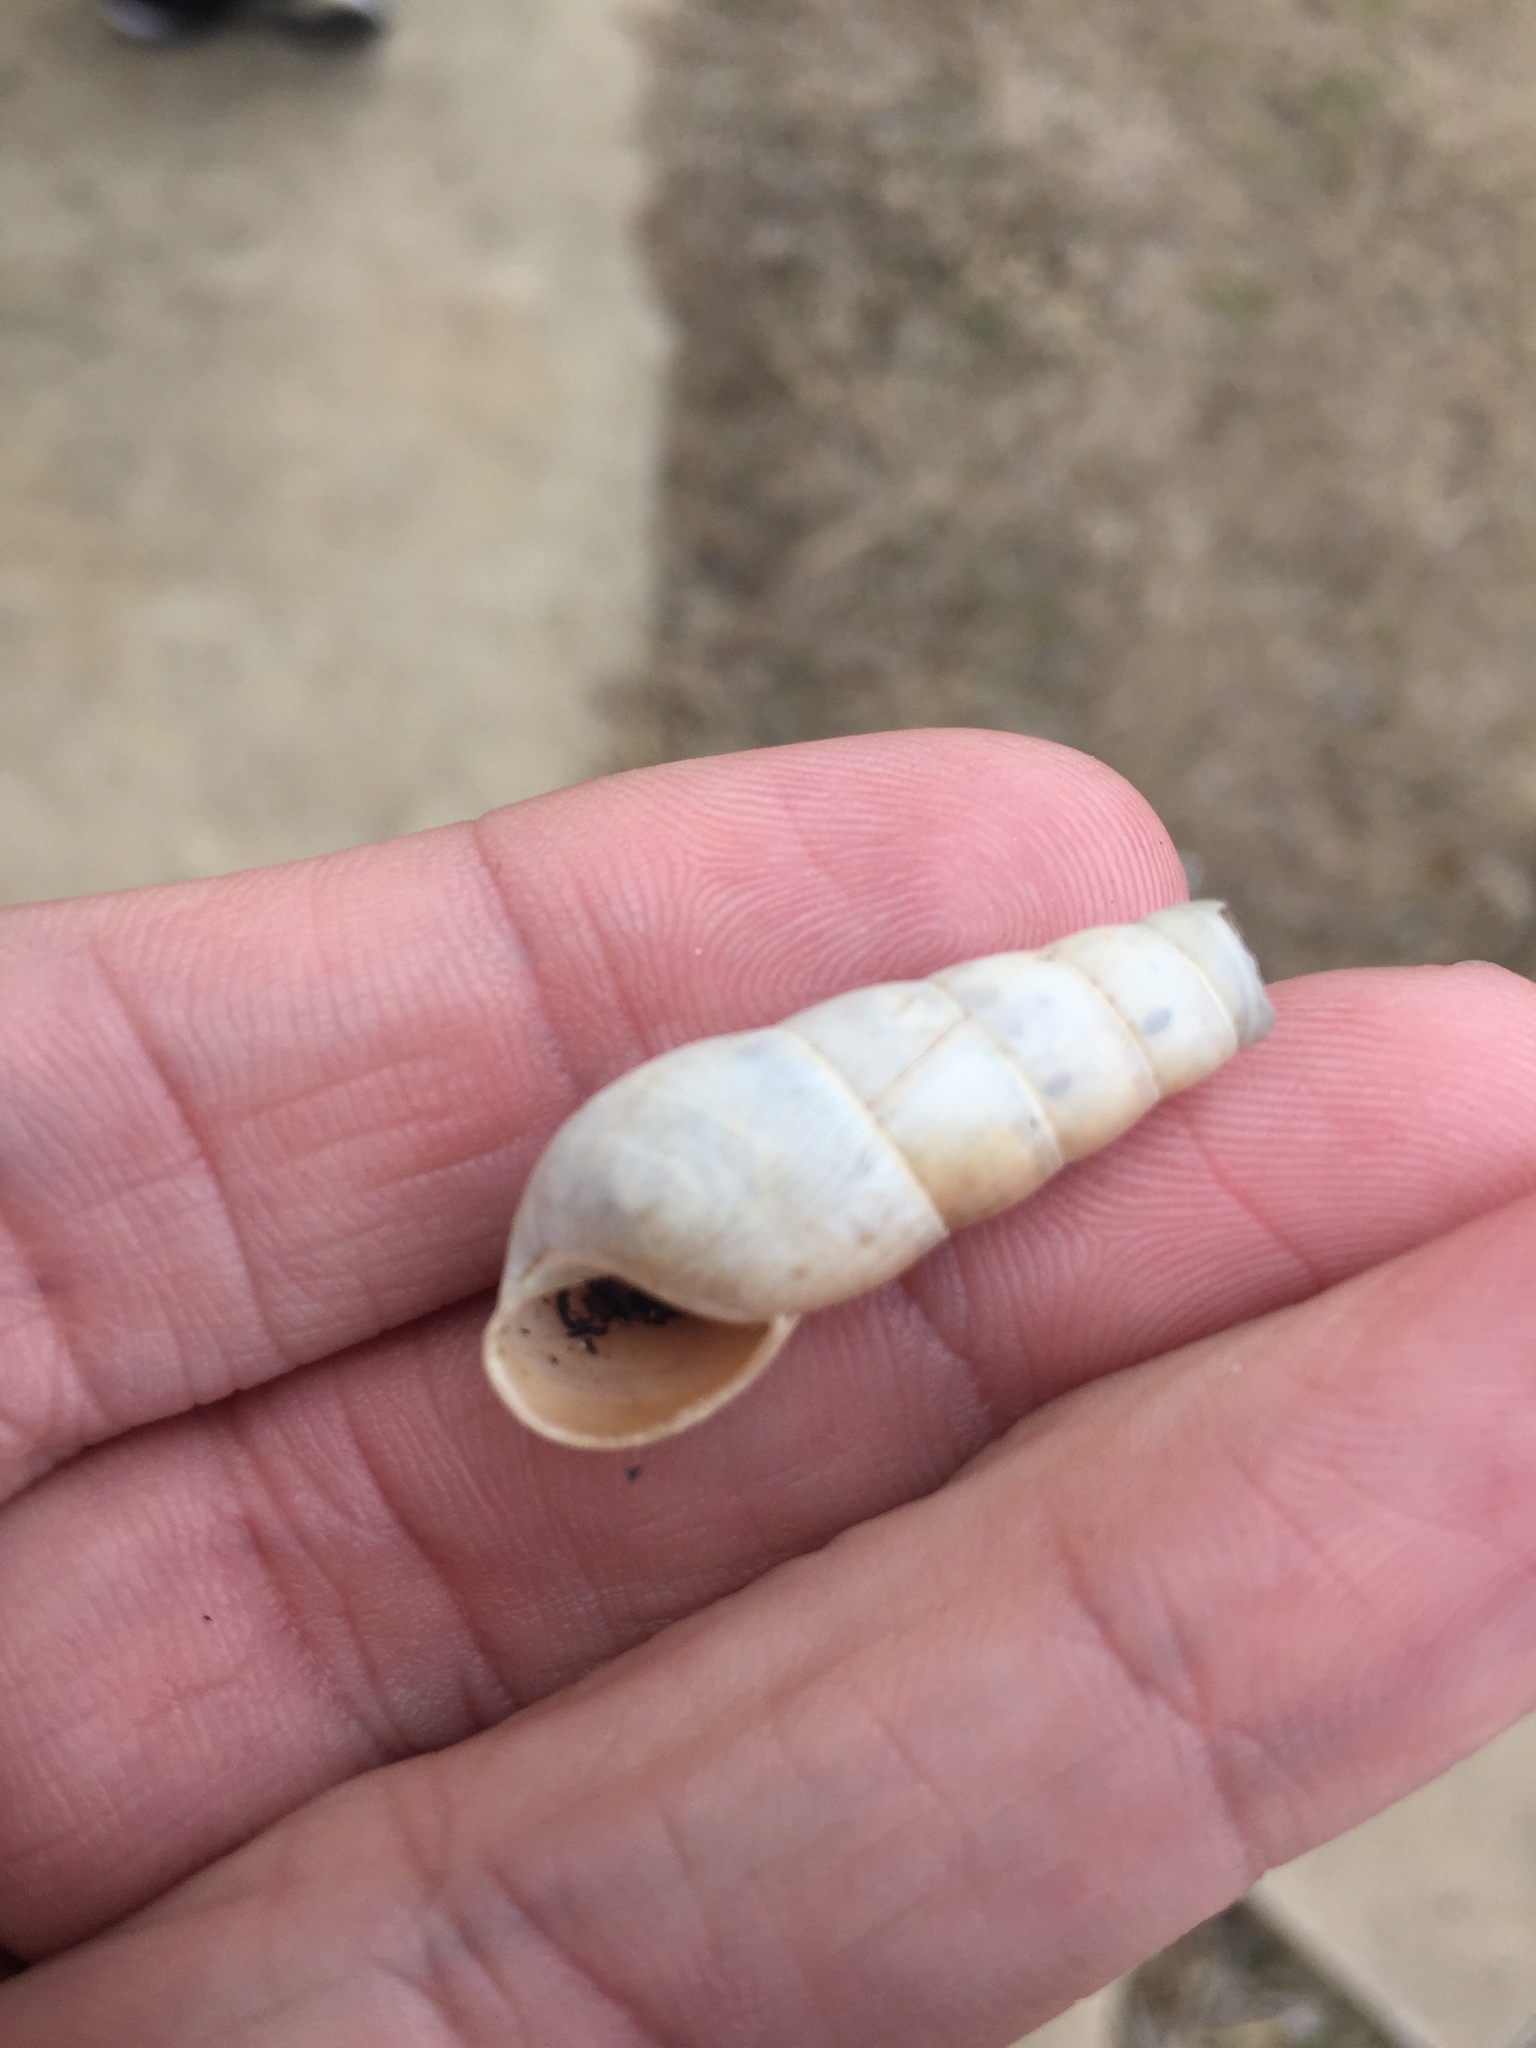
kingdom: Animalia
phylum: Mollusca
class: Gastropoda
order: Stylommatophora
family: Achatinidae
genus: Rumina
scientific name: Rumina decollata
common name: Decollate snail
